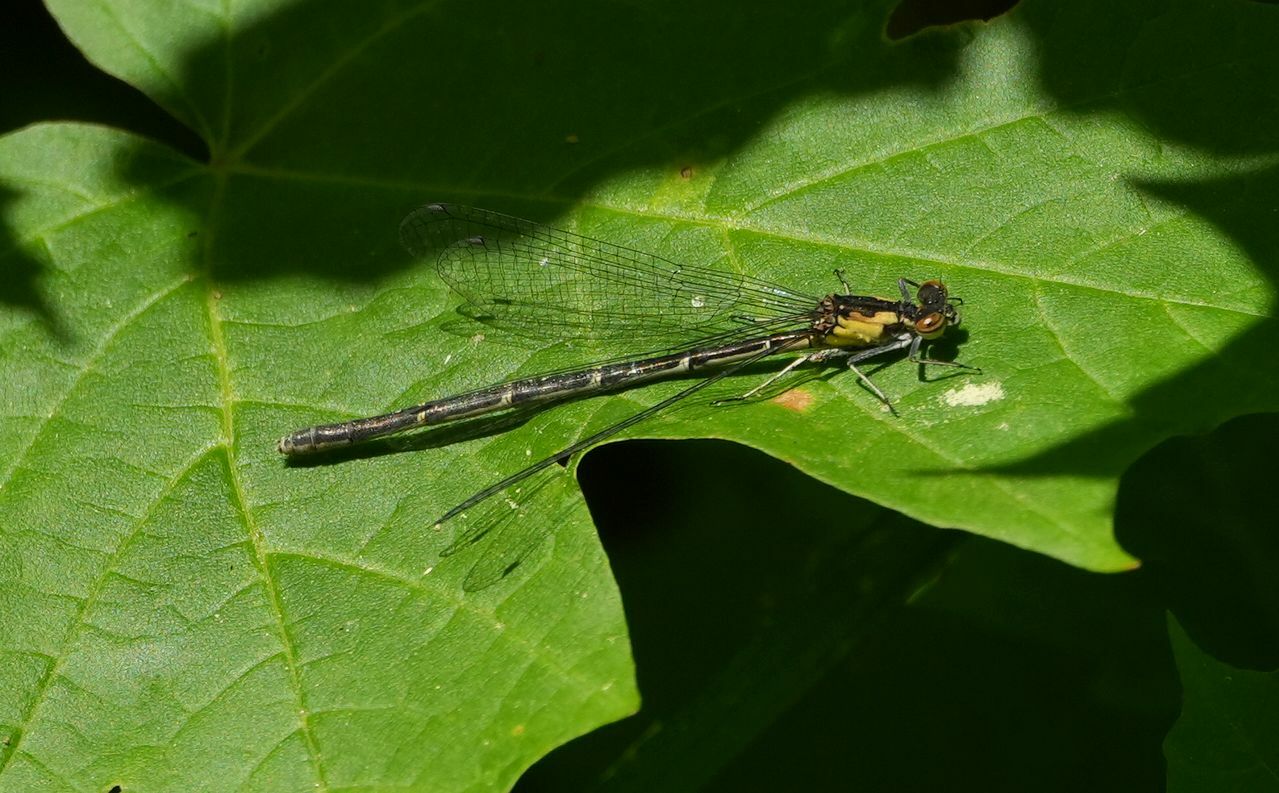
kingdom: Animalia
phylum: Arthropoda
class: Insecta
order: Odonata
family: Coenagrionidae
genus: Chromagrion
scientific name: Chromagrion conditum
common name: Aurora damsel
